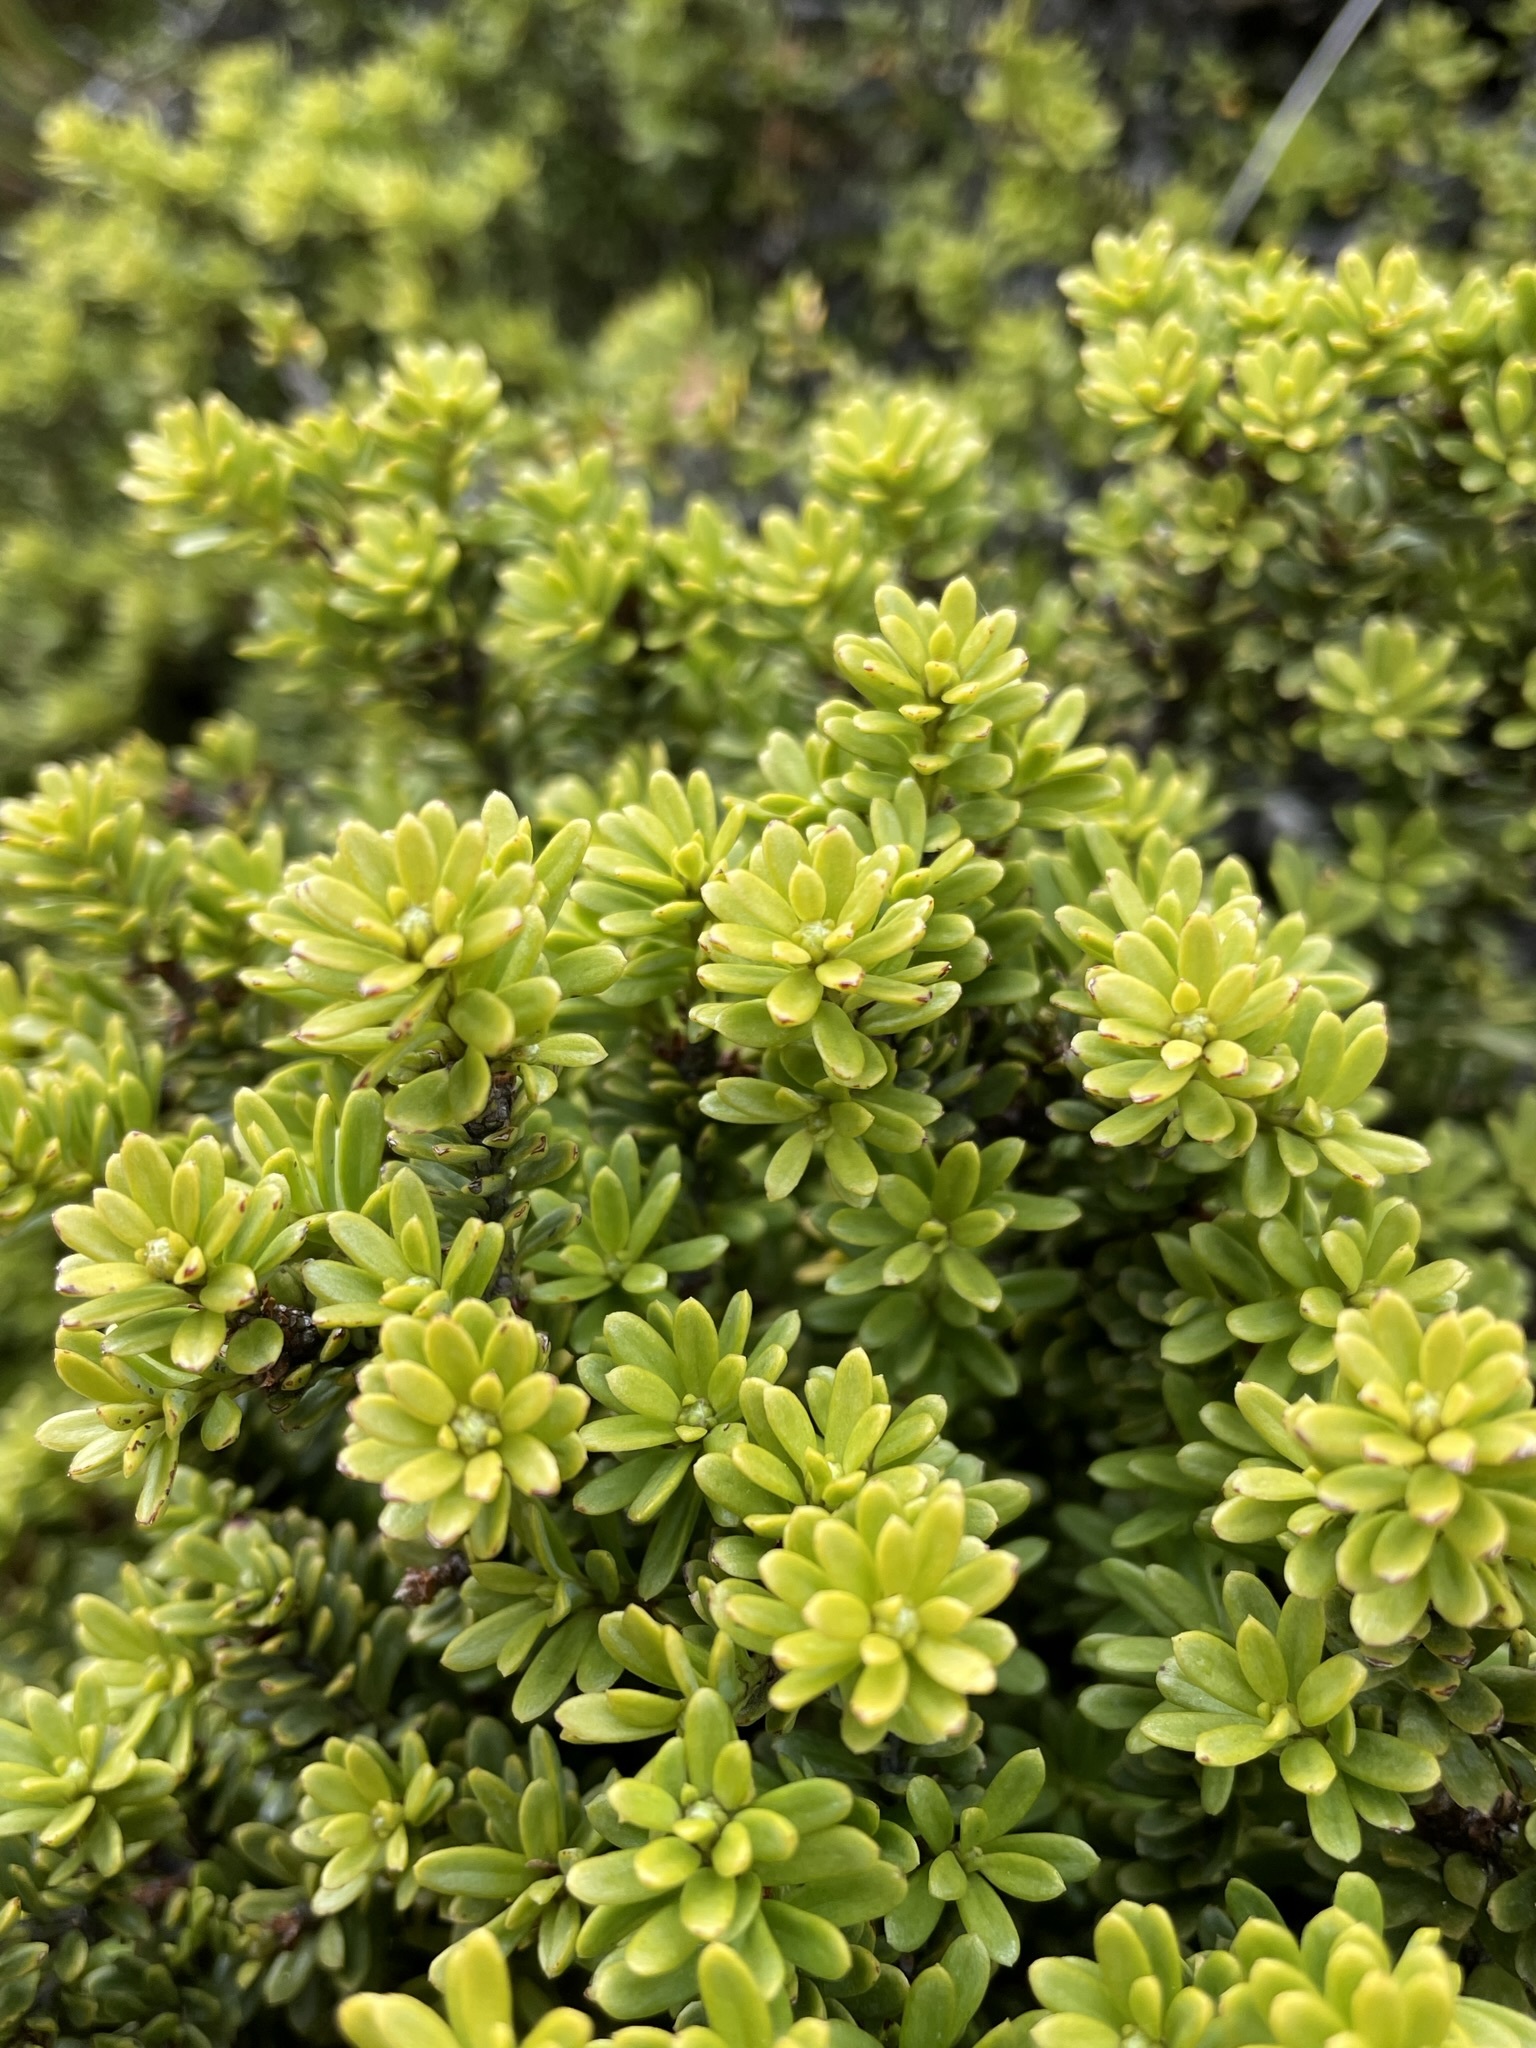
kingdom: Plantae
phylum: Tracheophyta
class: Pinopsida
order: Pinales
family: Podocarpaceae
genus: Podocarpus
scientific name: Podocarpus nivalis
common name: Alpine totara
